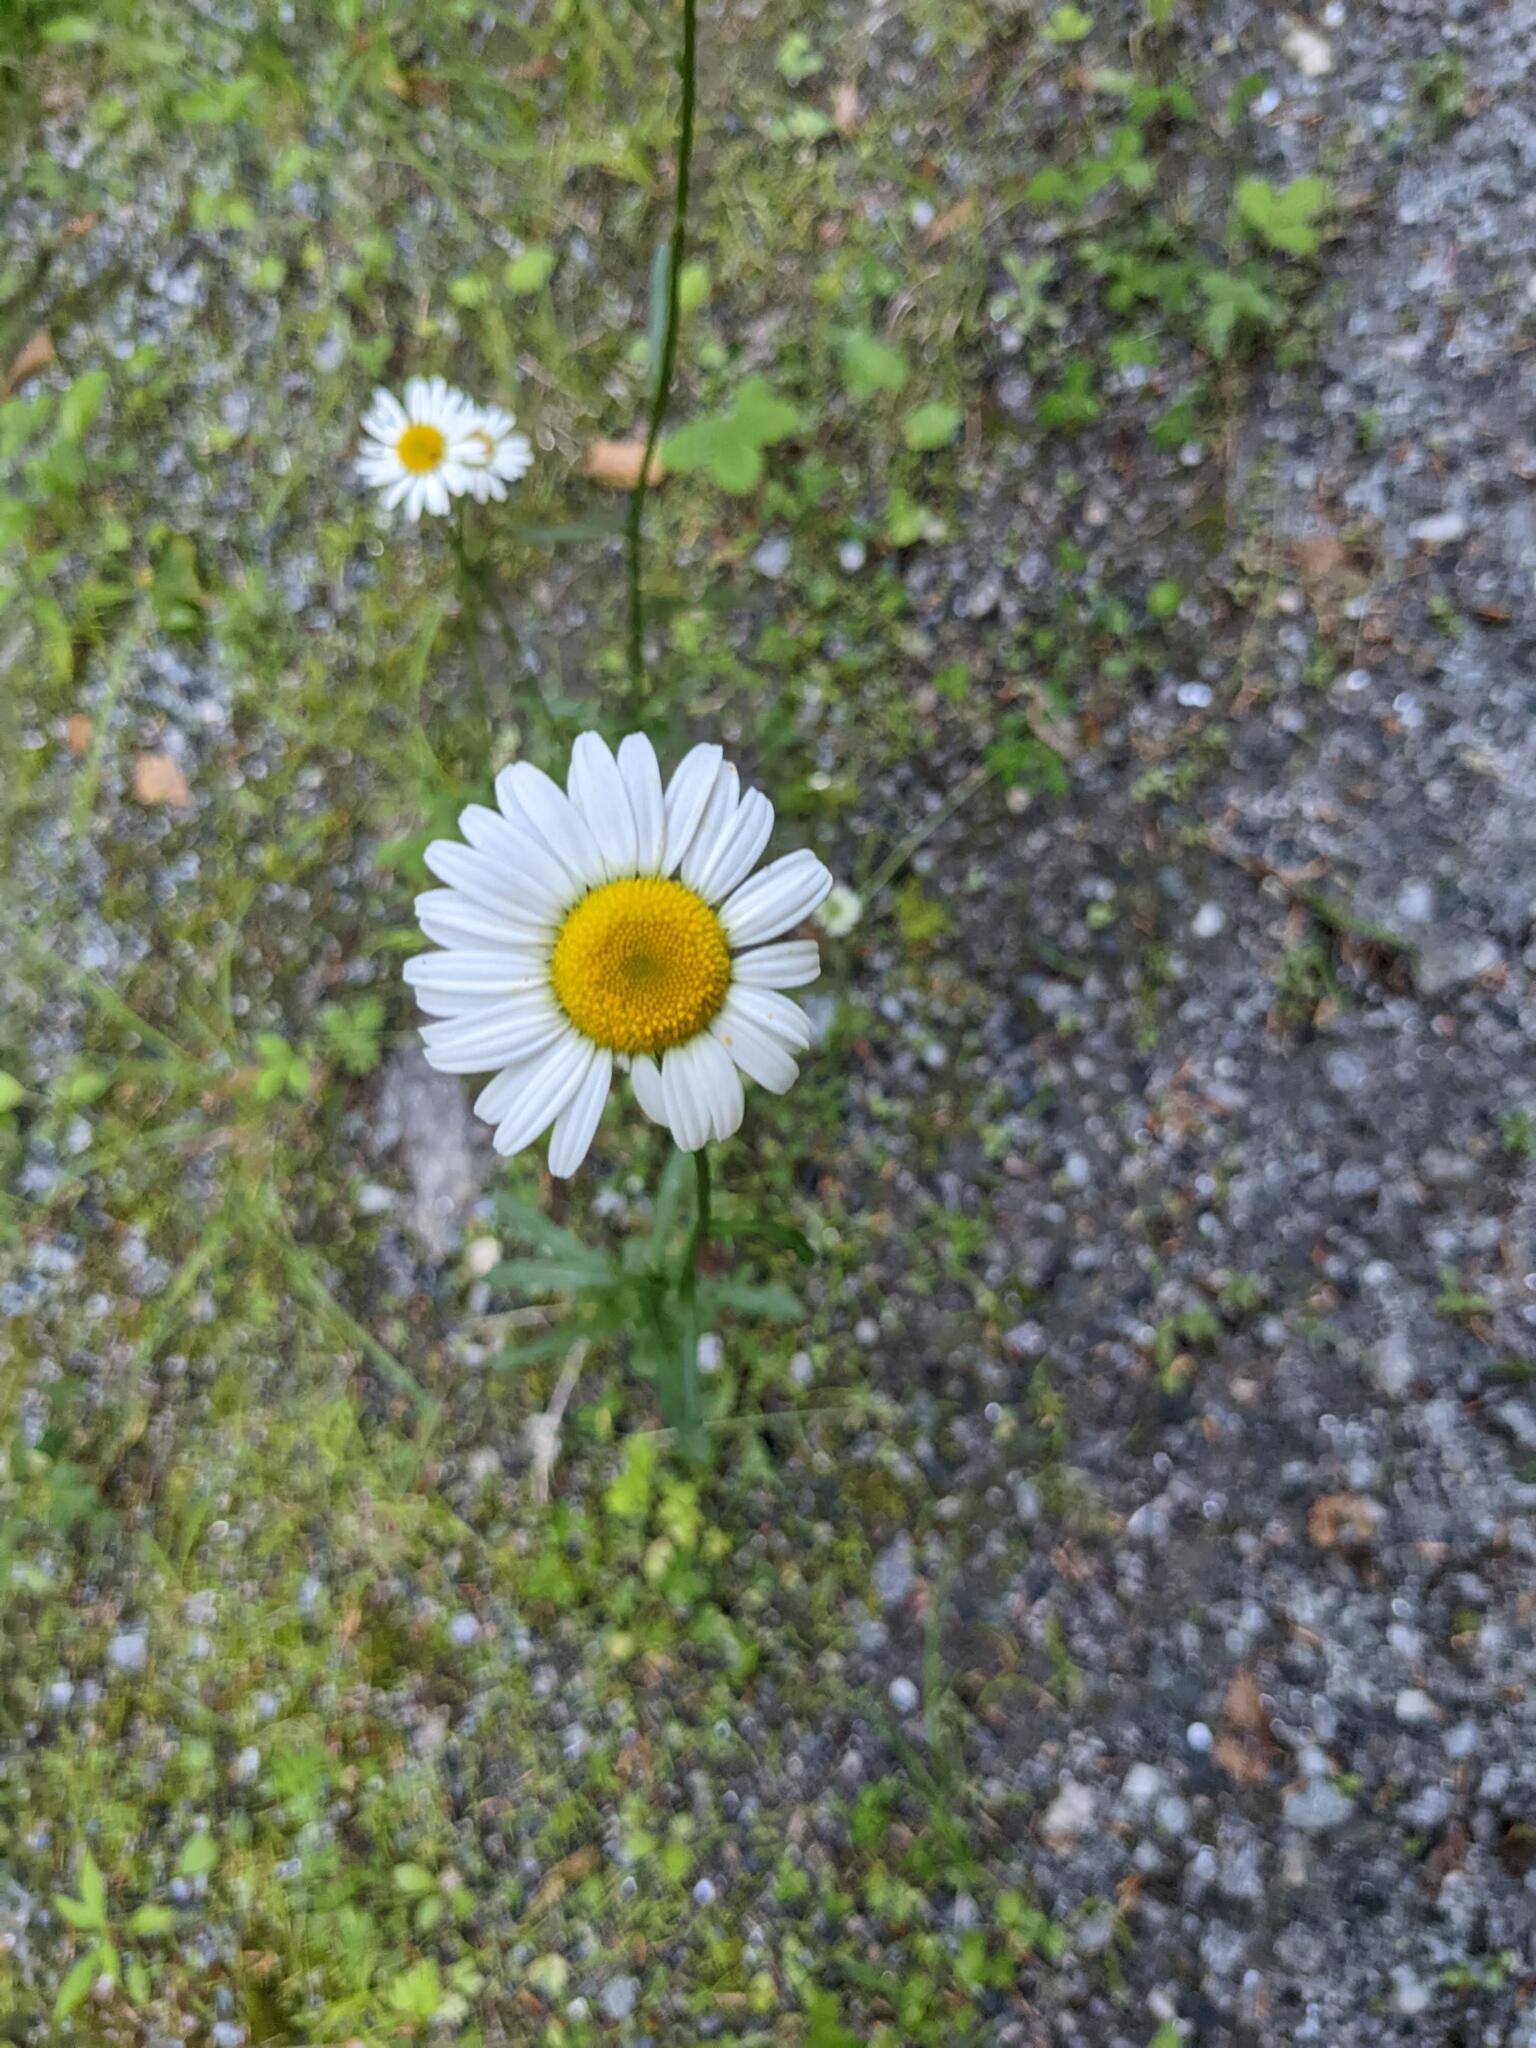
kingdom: Plantae
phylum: Tracheophyta
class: Magnoliopsida
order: Asterales
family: Asteraceae
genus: Leucanthemum
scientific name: Leucanthemum vulgare
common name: Oxeye daisy
